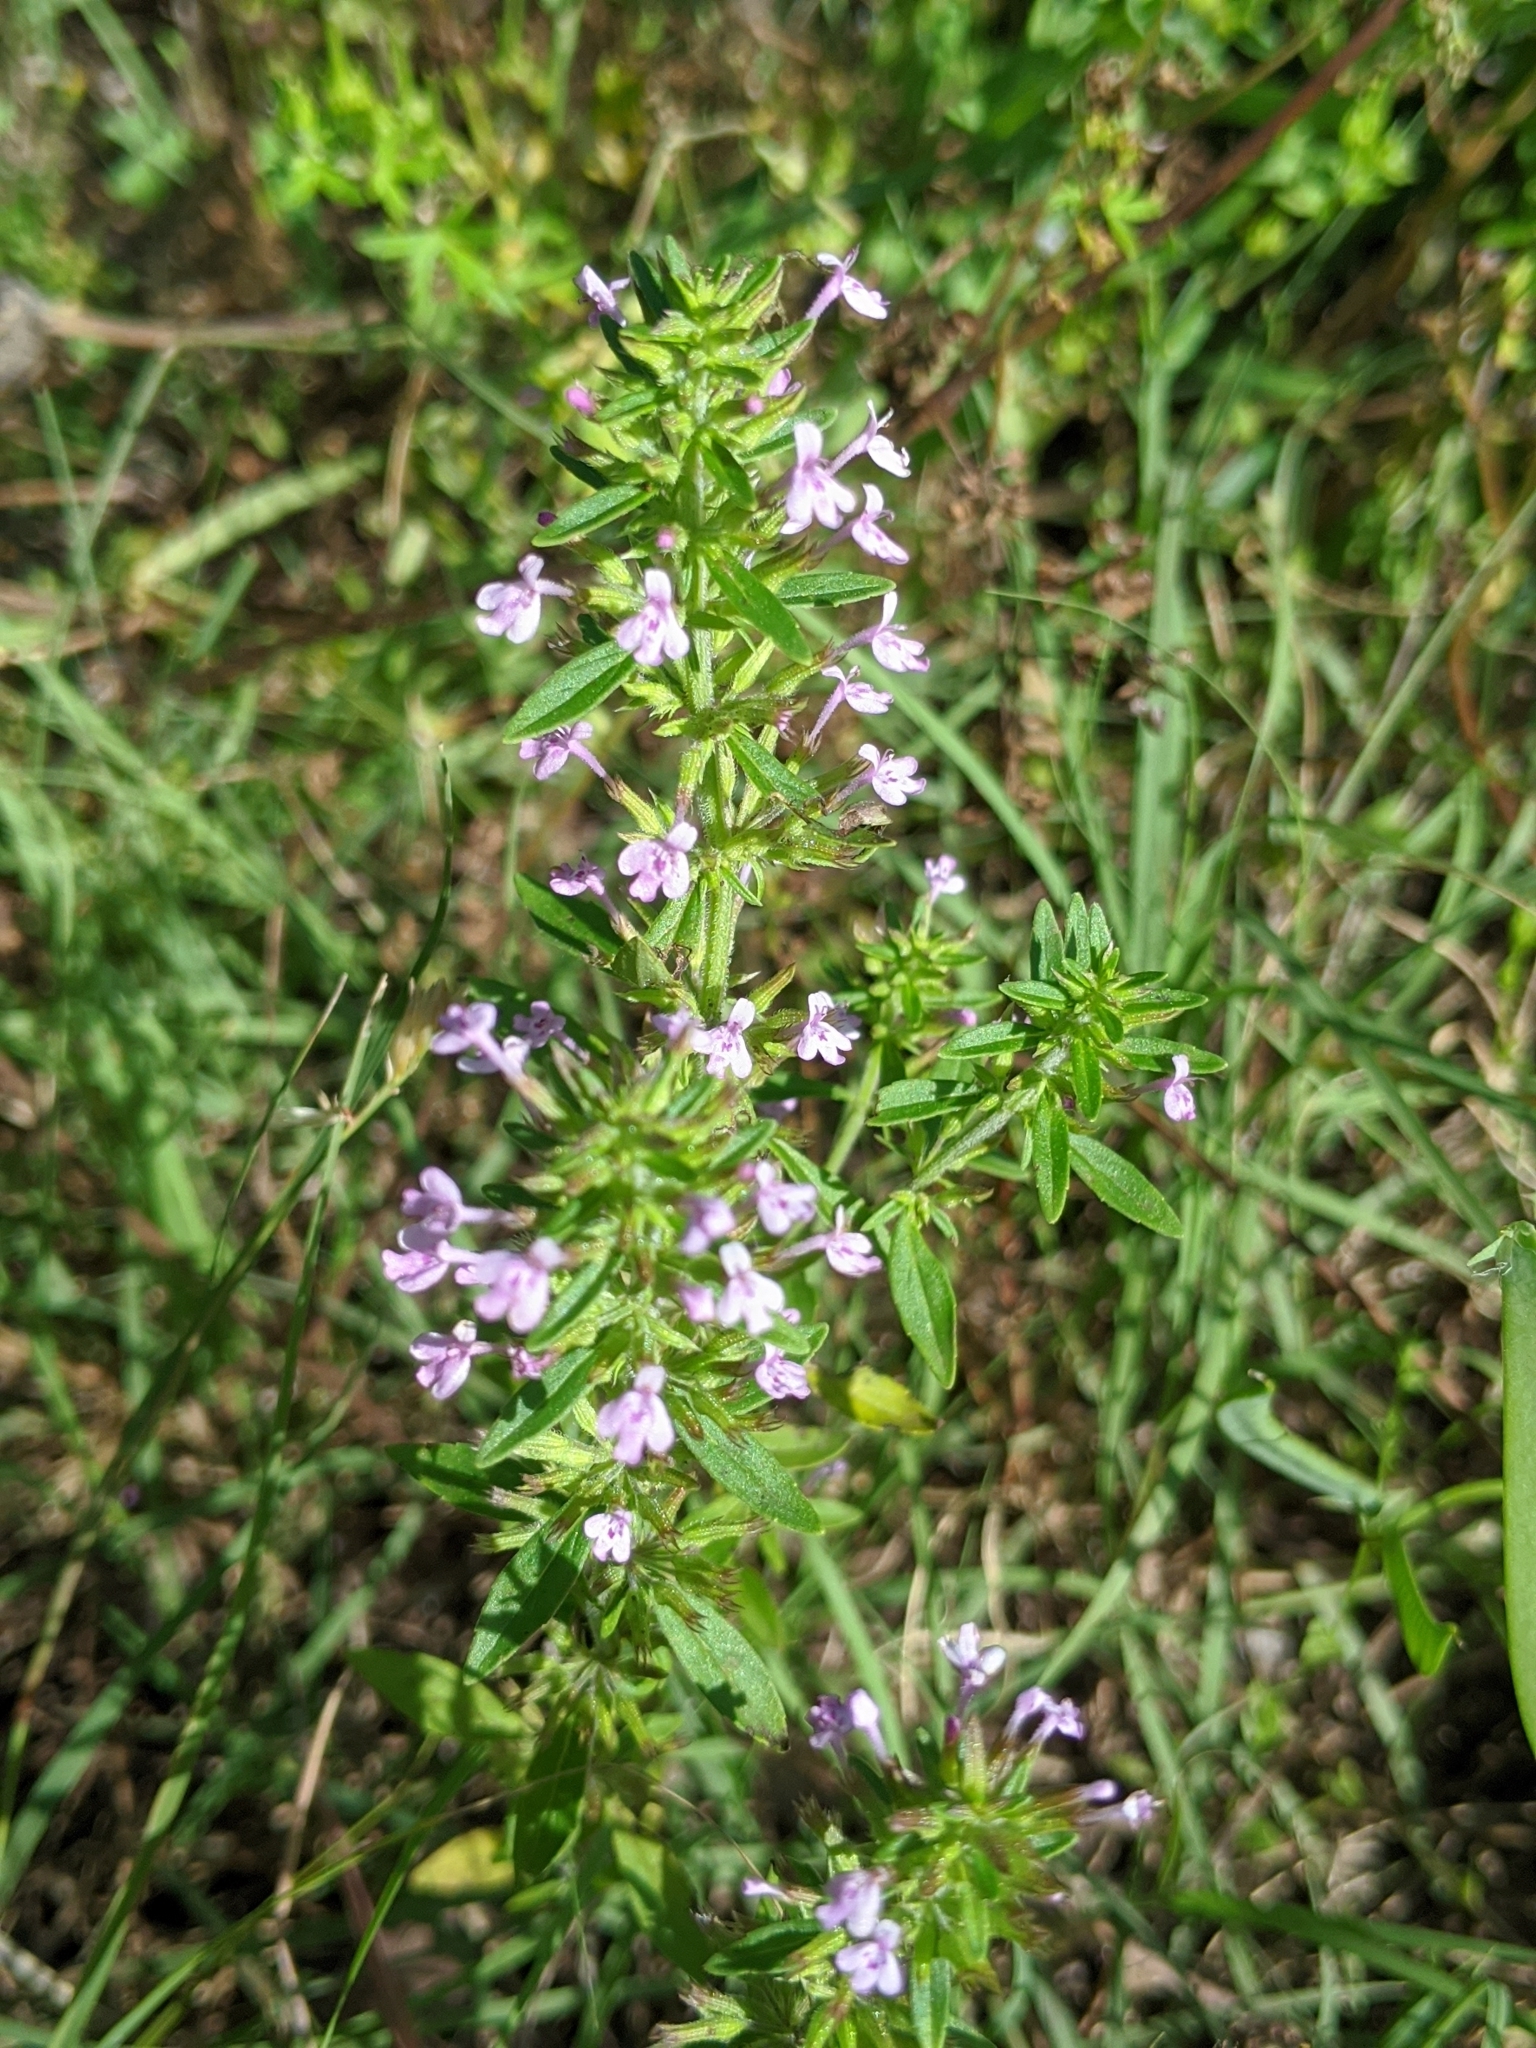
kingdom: Plantae
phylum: Tracheophyta
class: Magnoliopsida
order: Lamiales
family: Lamiaceae
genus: Hedeoma
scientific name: Hedeoma acinoides
